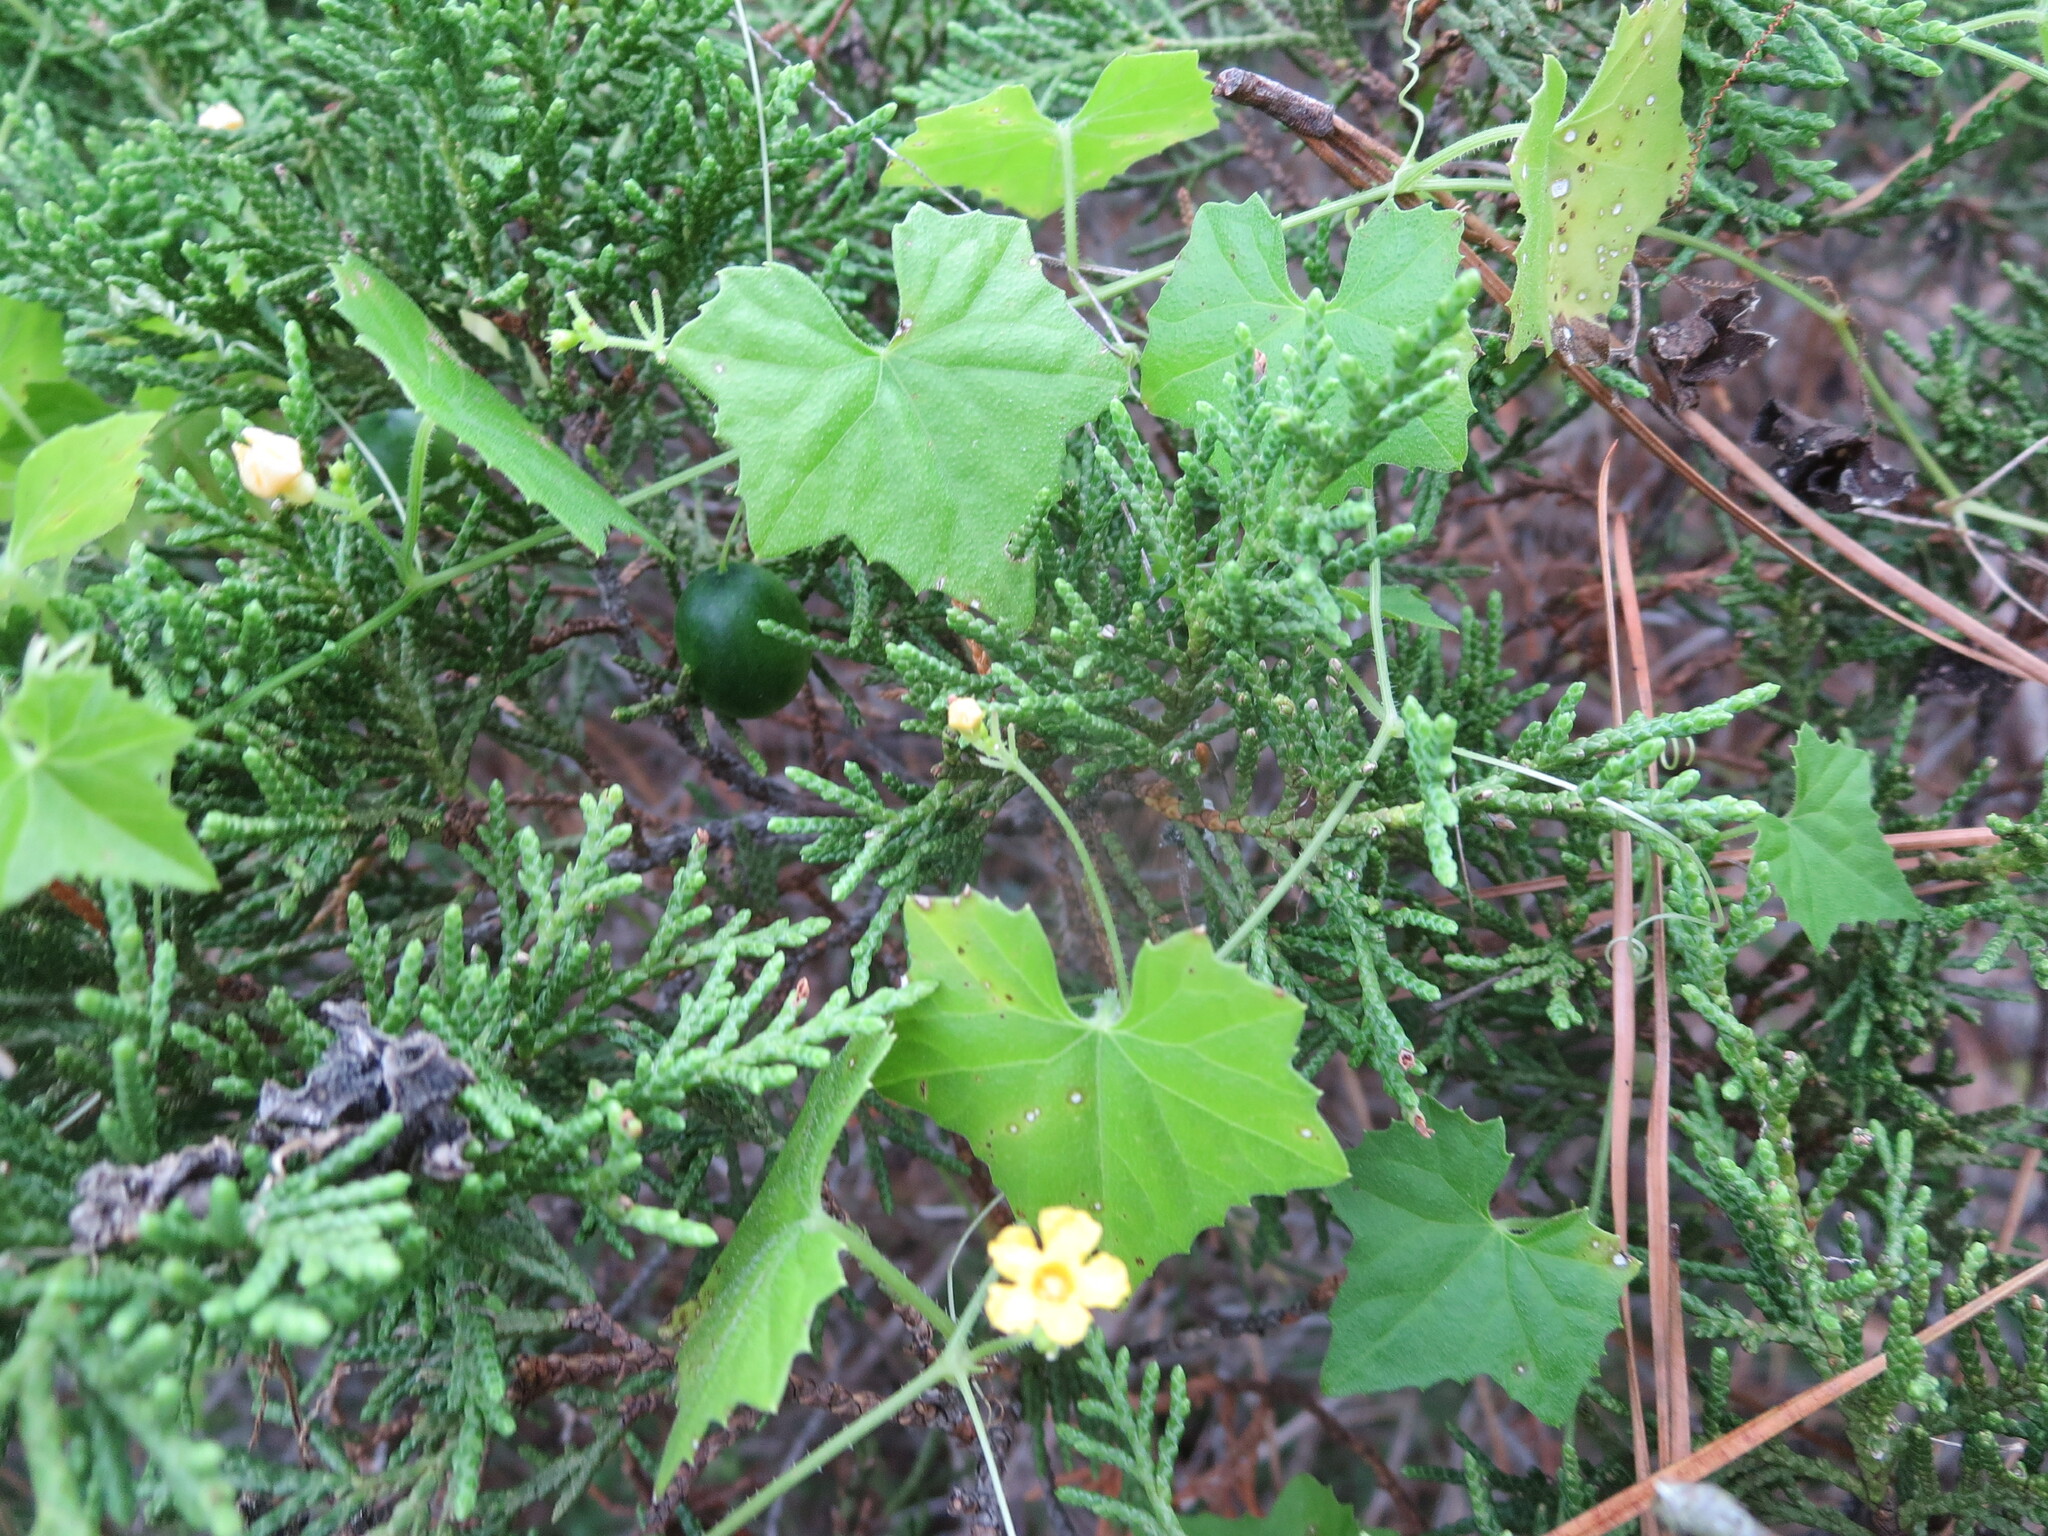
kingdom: Plantae
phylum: Tracheophyta
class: Magnoliopsida
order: Cucurbitales
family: Cucurbitaceae
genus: Melothria
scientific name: Melothria pendula
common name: Creeping-cucumber
